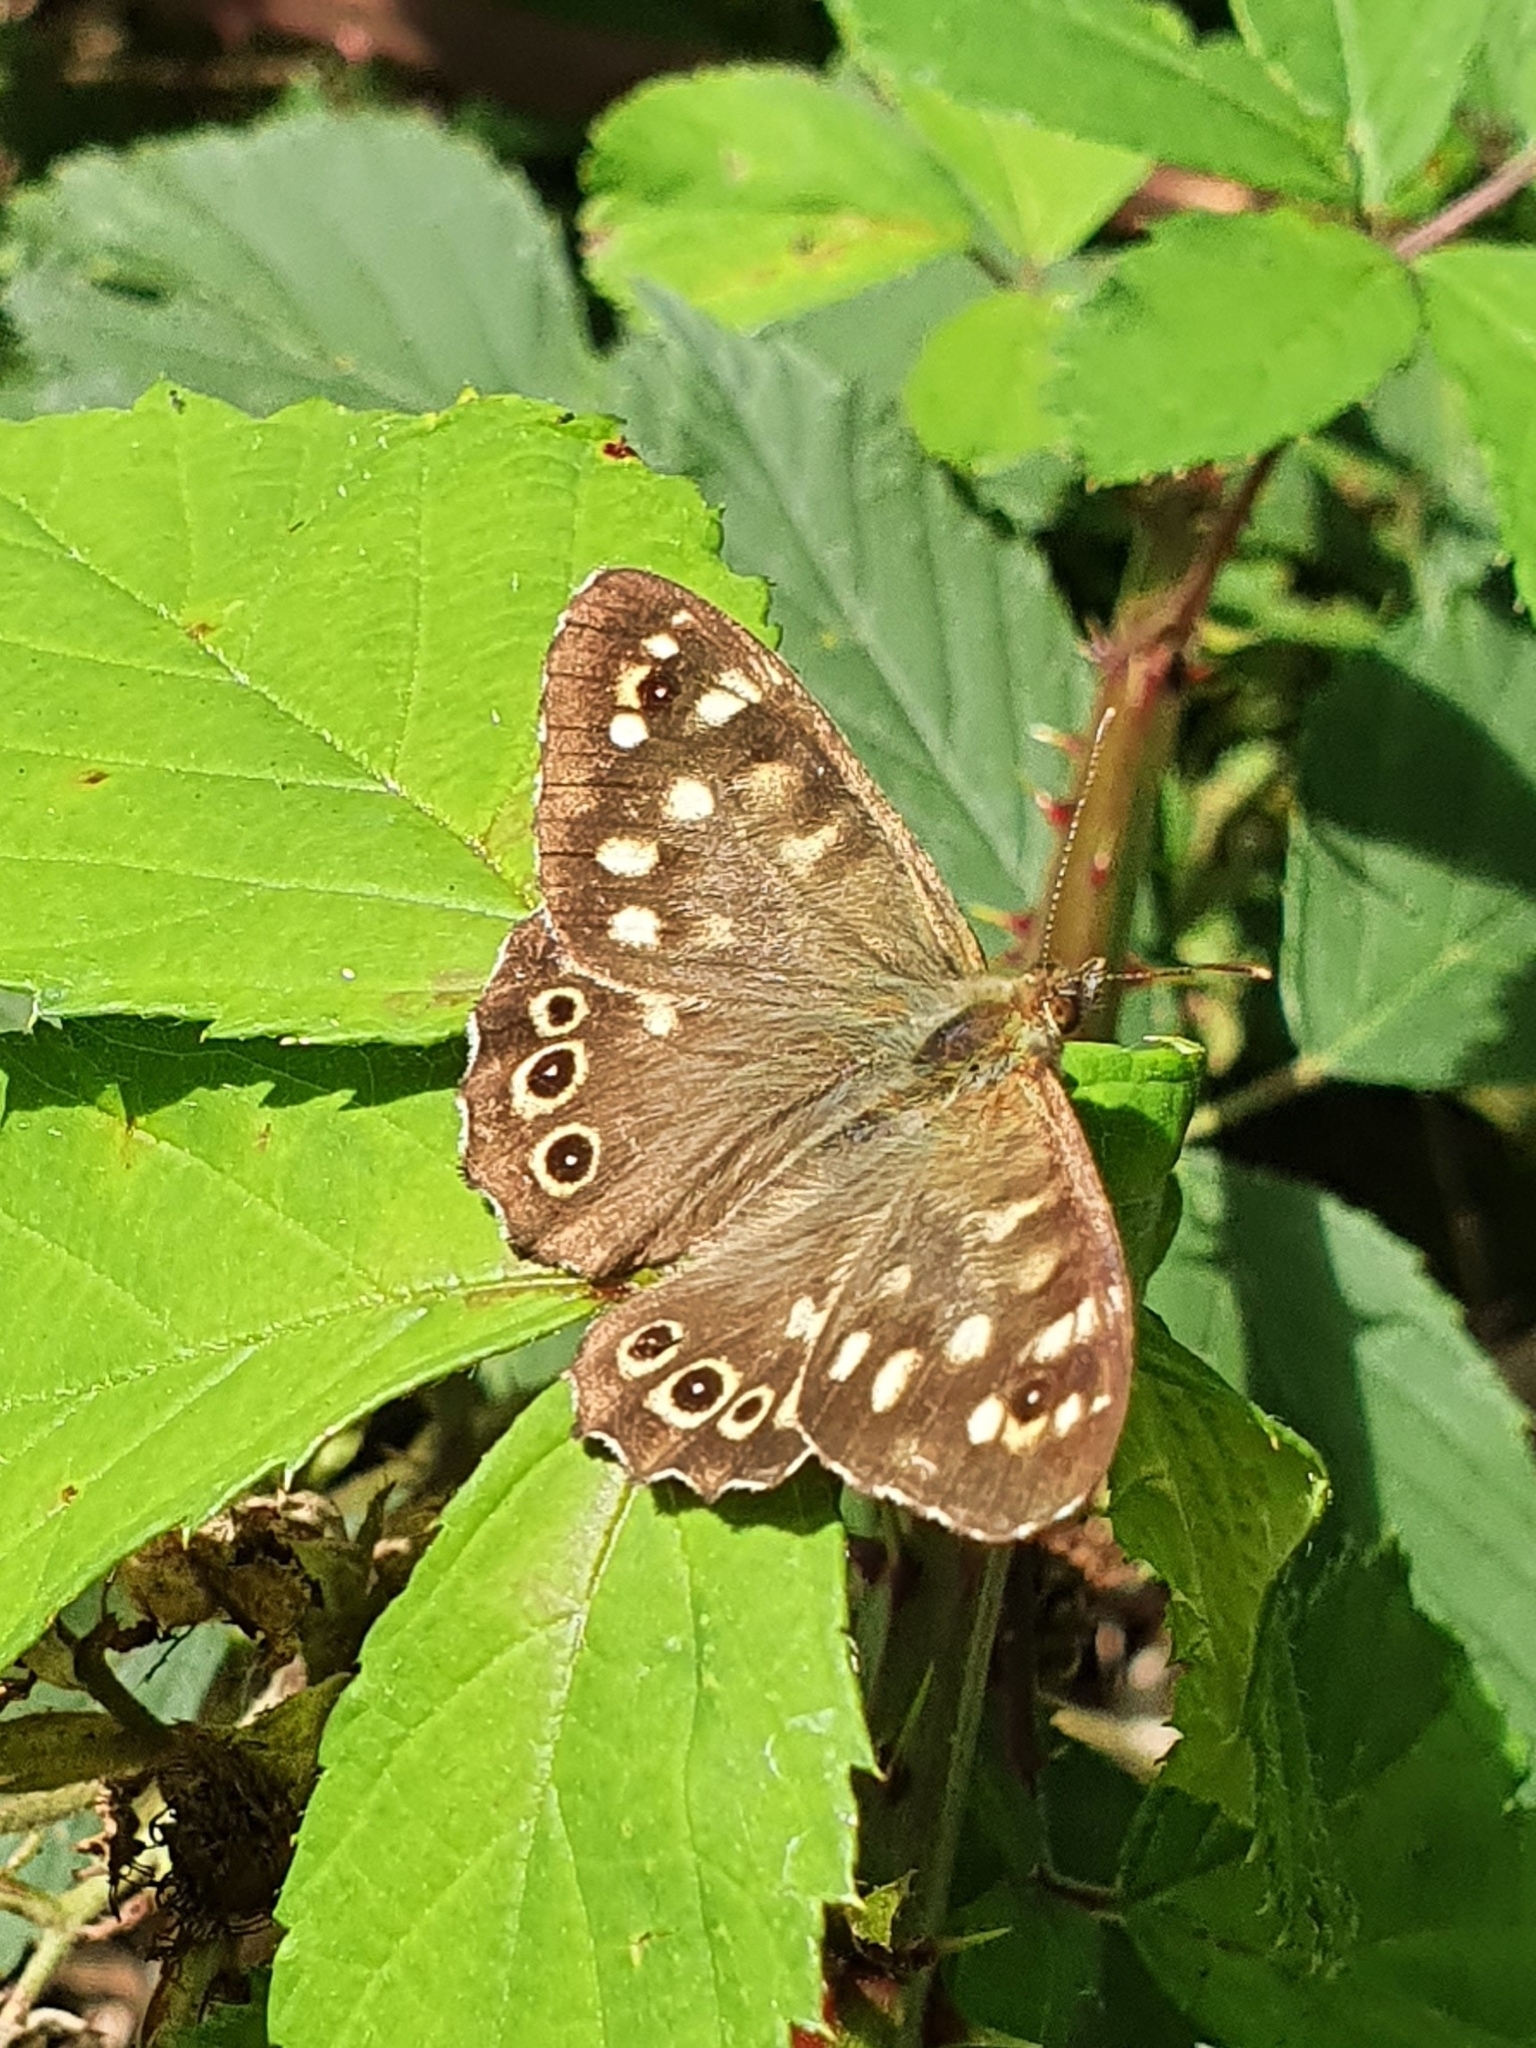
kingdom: Animalia
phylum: Arthropoda
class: Insecta
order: Lepidoptera
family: Nymphalidae
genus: Pararge
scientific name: Pararge aegeria
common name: Speckled wood
